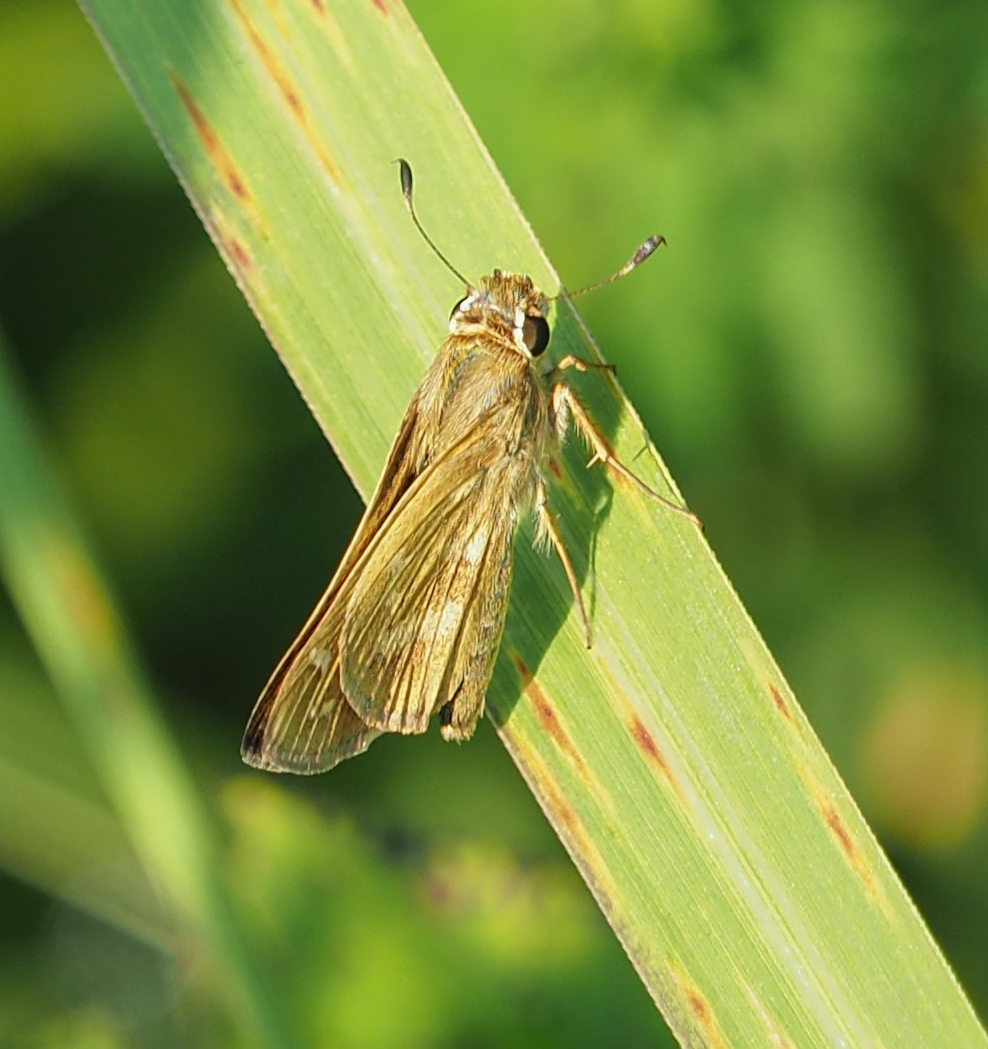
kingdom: Animalia
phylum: Arthropoda
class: Insecta
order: Lepidoptera
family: Hesperiidae
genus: Atalopedes
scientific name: Atalopedes
